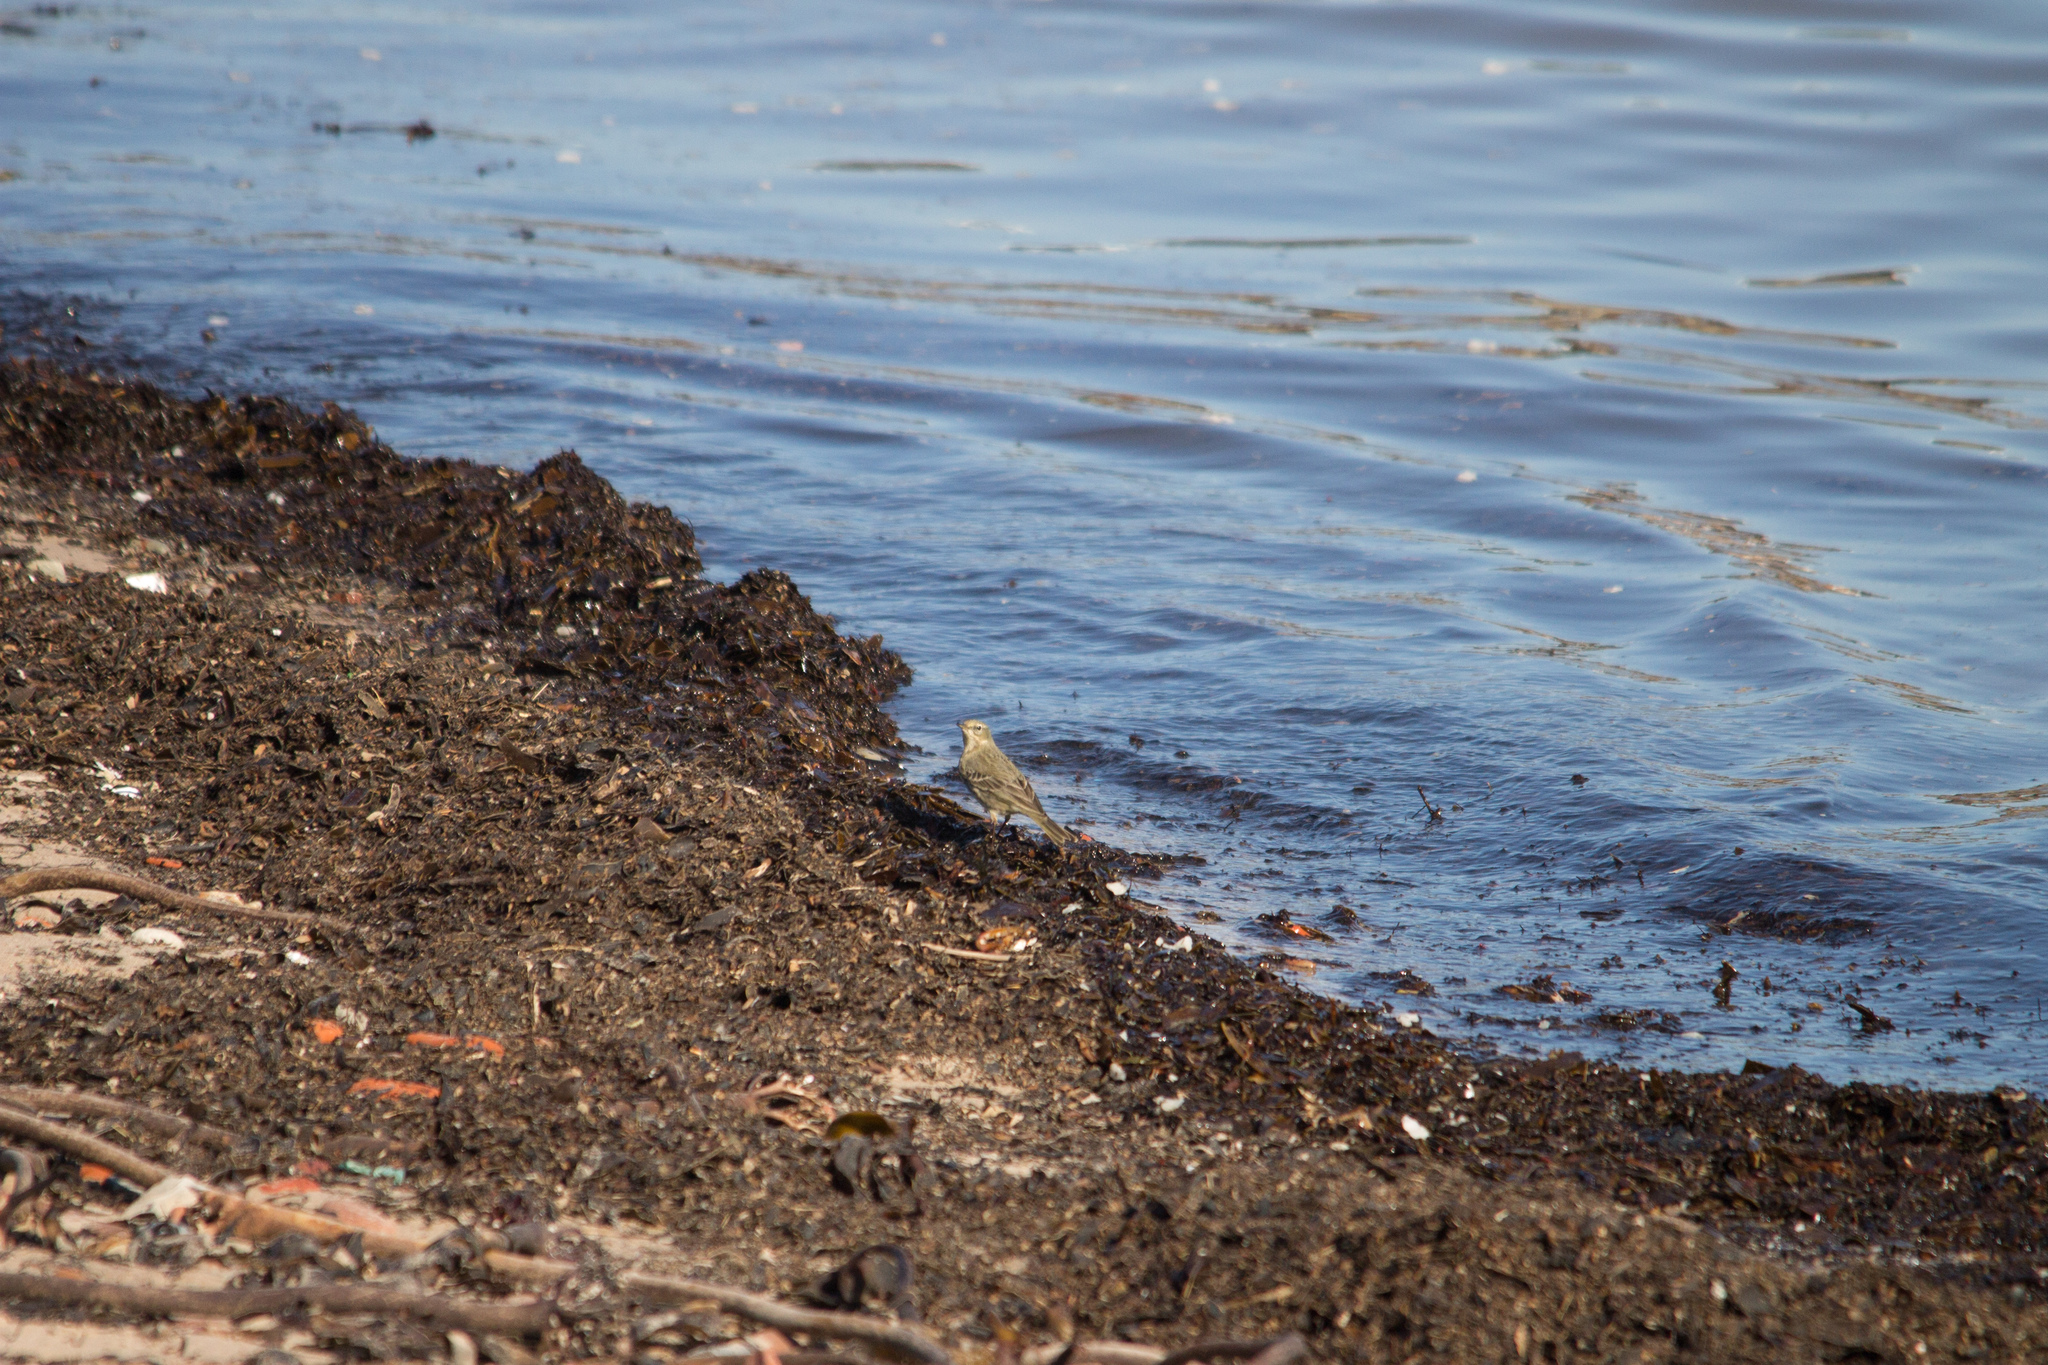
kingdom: Animalia
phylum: Chordata
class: Aves
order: Passeriformes
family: Motacillidae
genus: Anthus
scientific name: Anthus petrosus
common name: Eurasian rock pipit
